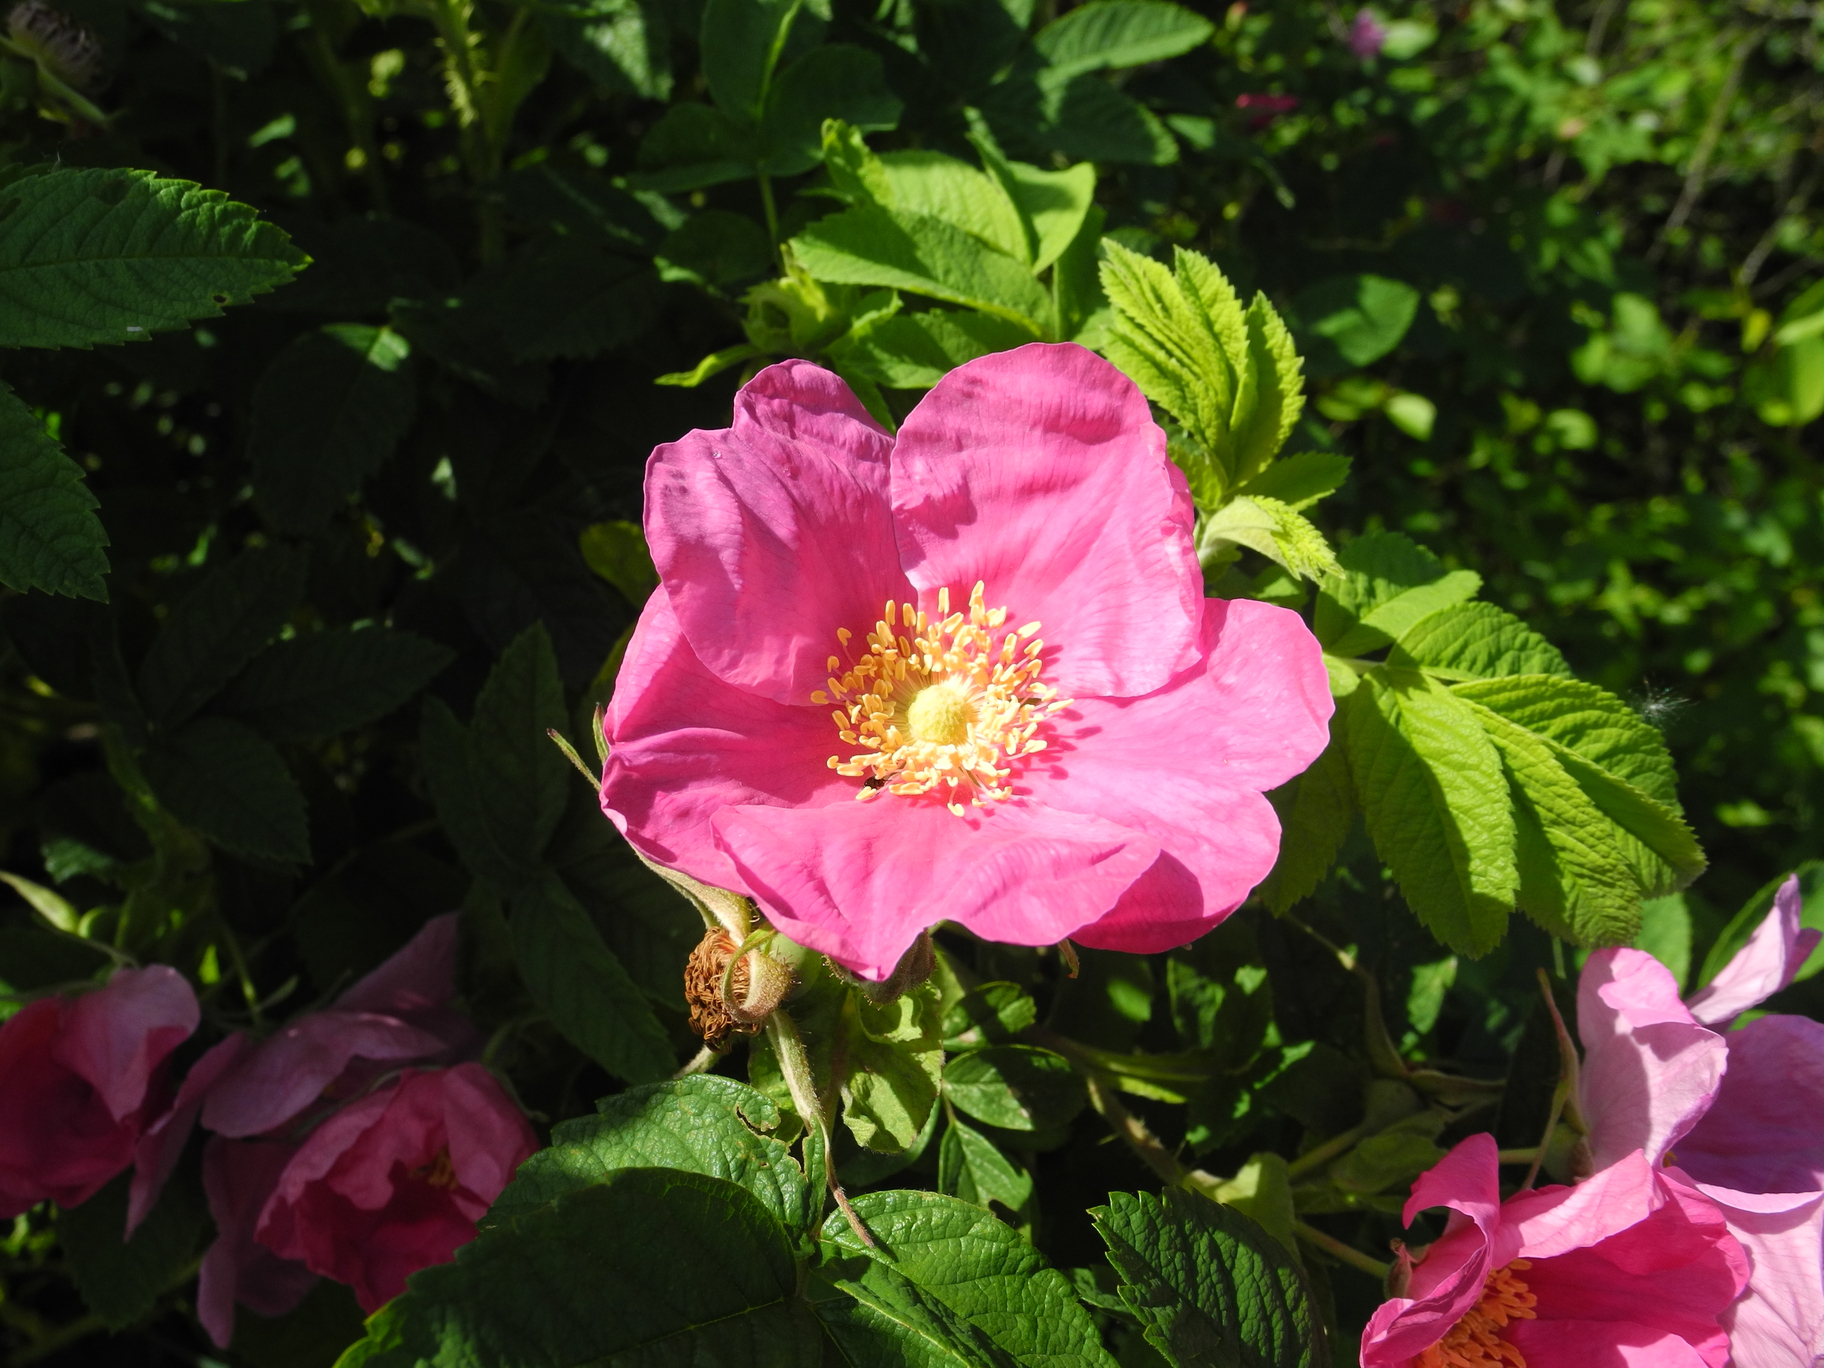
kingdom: Plantae
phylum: Tracheophyta
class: Magnoliopsida
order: Rosales
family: Rosaceae
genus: Rosa
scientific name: Rosa rugosa
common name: Japanese rose
